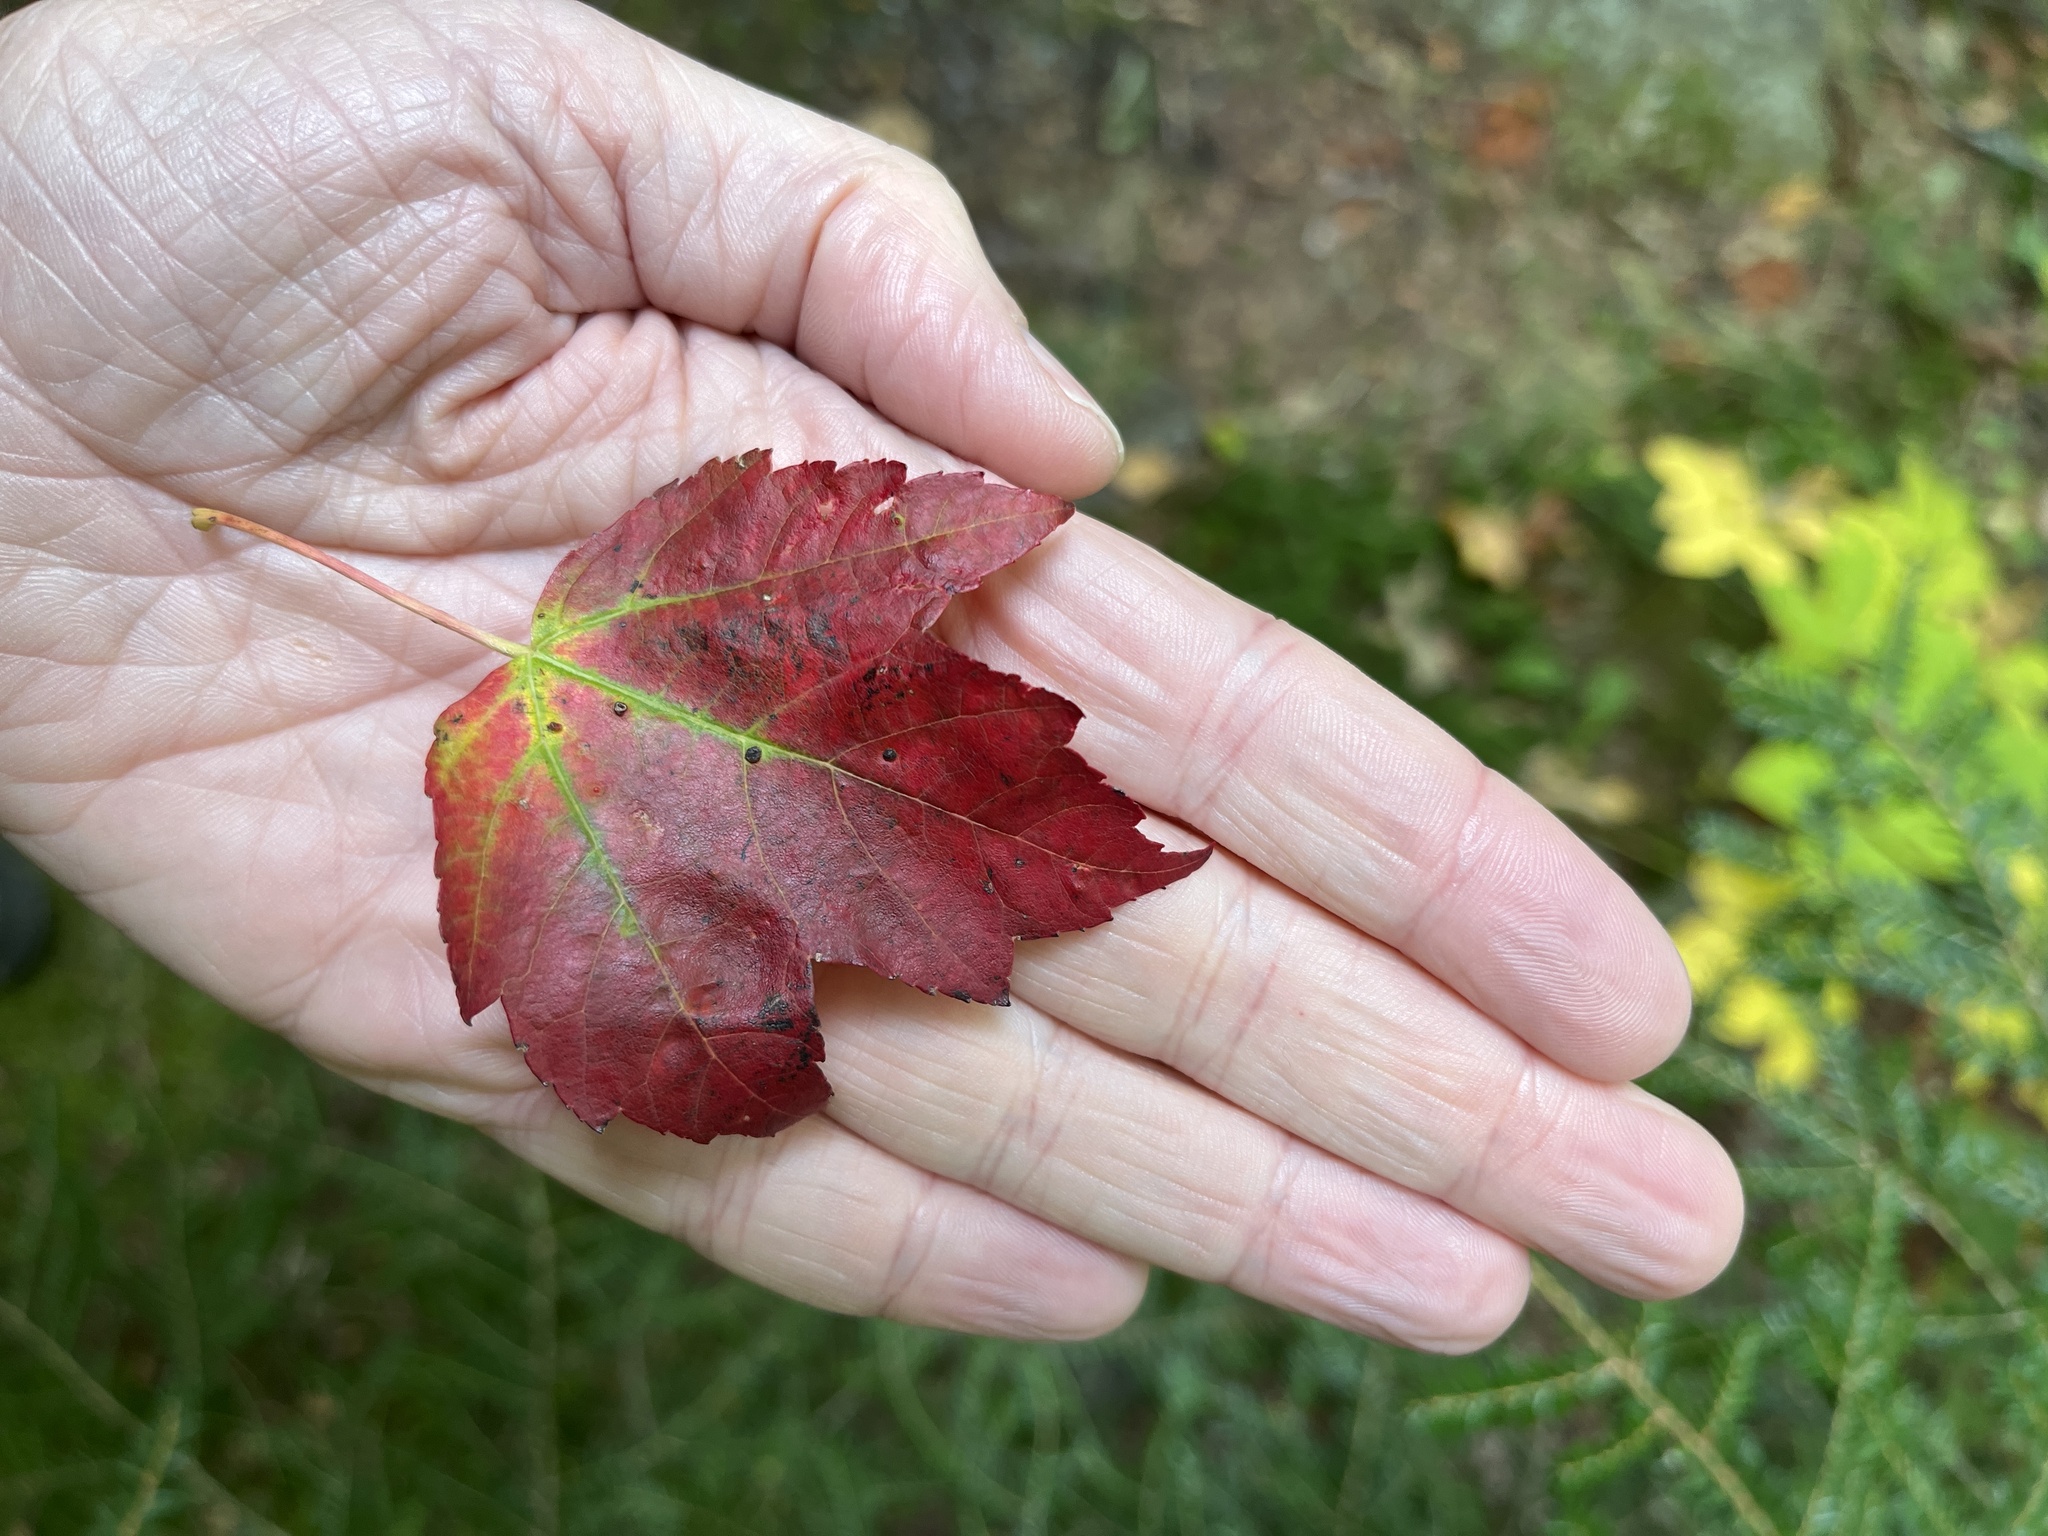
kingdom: Plantae
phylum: Tracheophyta
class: Magnoliopsida
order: Sapindales
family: Sapindaceae
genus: Acer
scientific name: Acer rubrum
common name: Red maple
